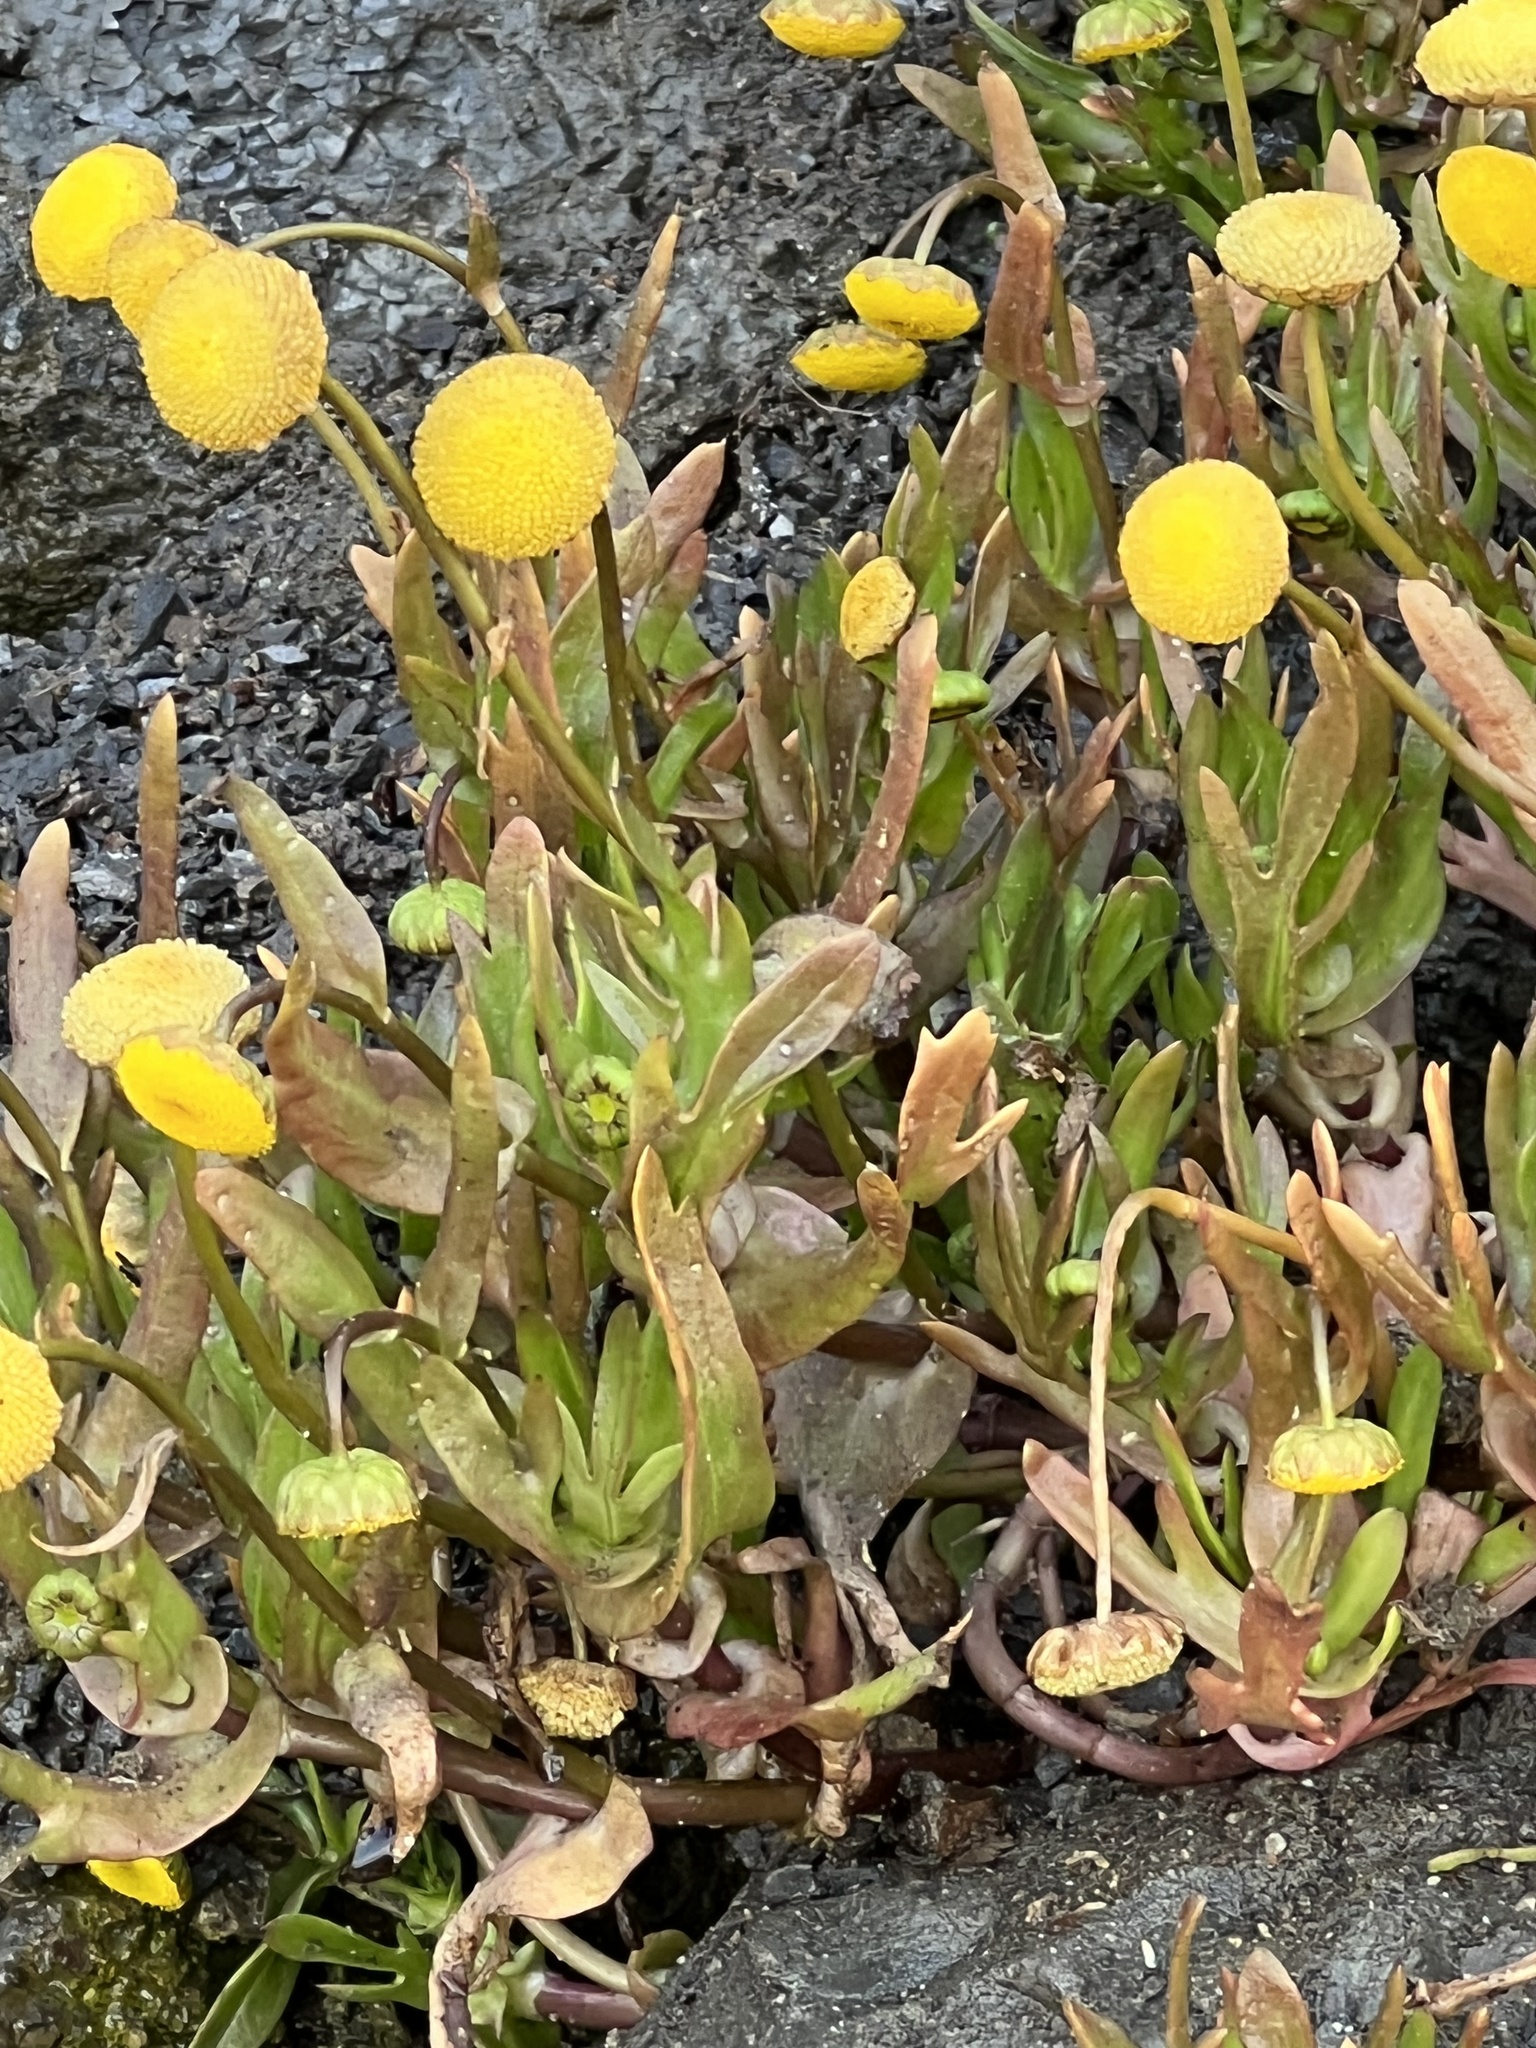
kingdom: Plantae
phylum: Tracheophyta
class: Magnoliopsida
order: Asterales
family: Asteraceae
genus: Cotula
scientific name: Cotula coronopifolia
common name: Buttonweed
